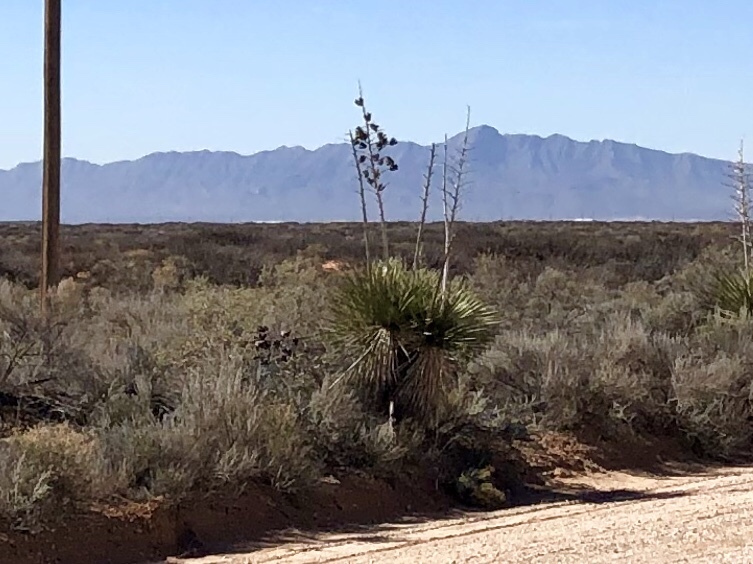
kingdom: Plantae
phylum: Tracheophyta
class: Liliopsida
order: Asparagales
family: Asparagaceae
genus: Yucca
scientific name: Yucca elata
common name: Palmella
